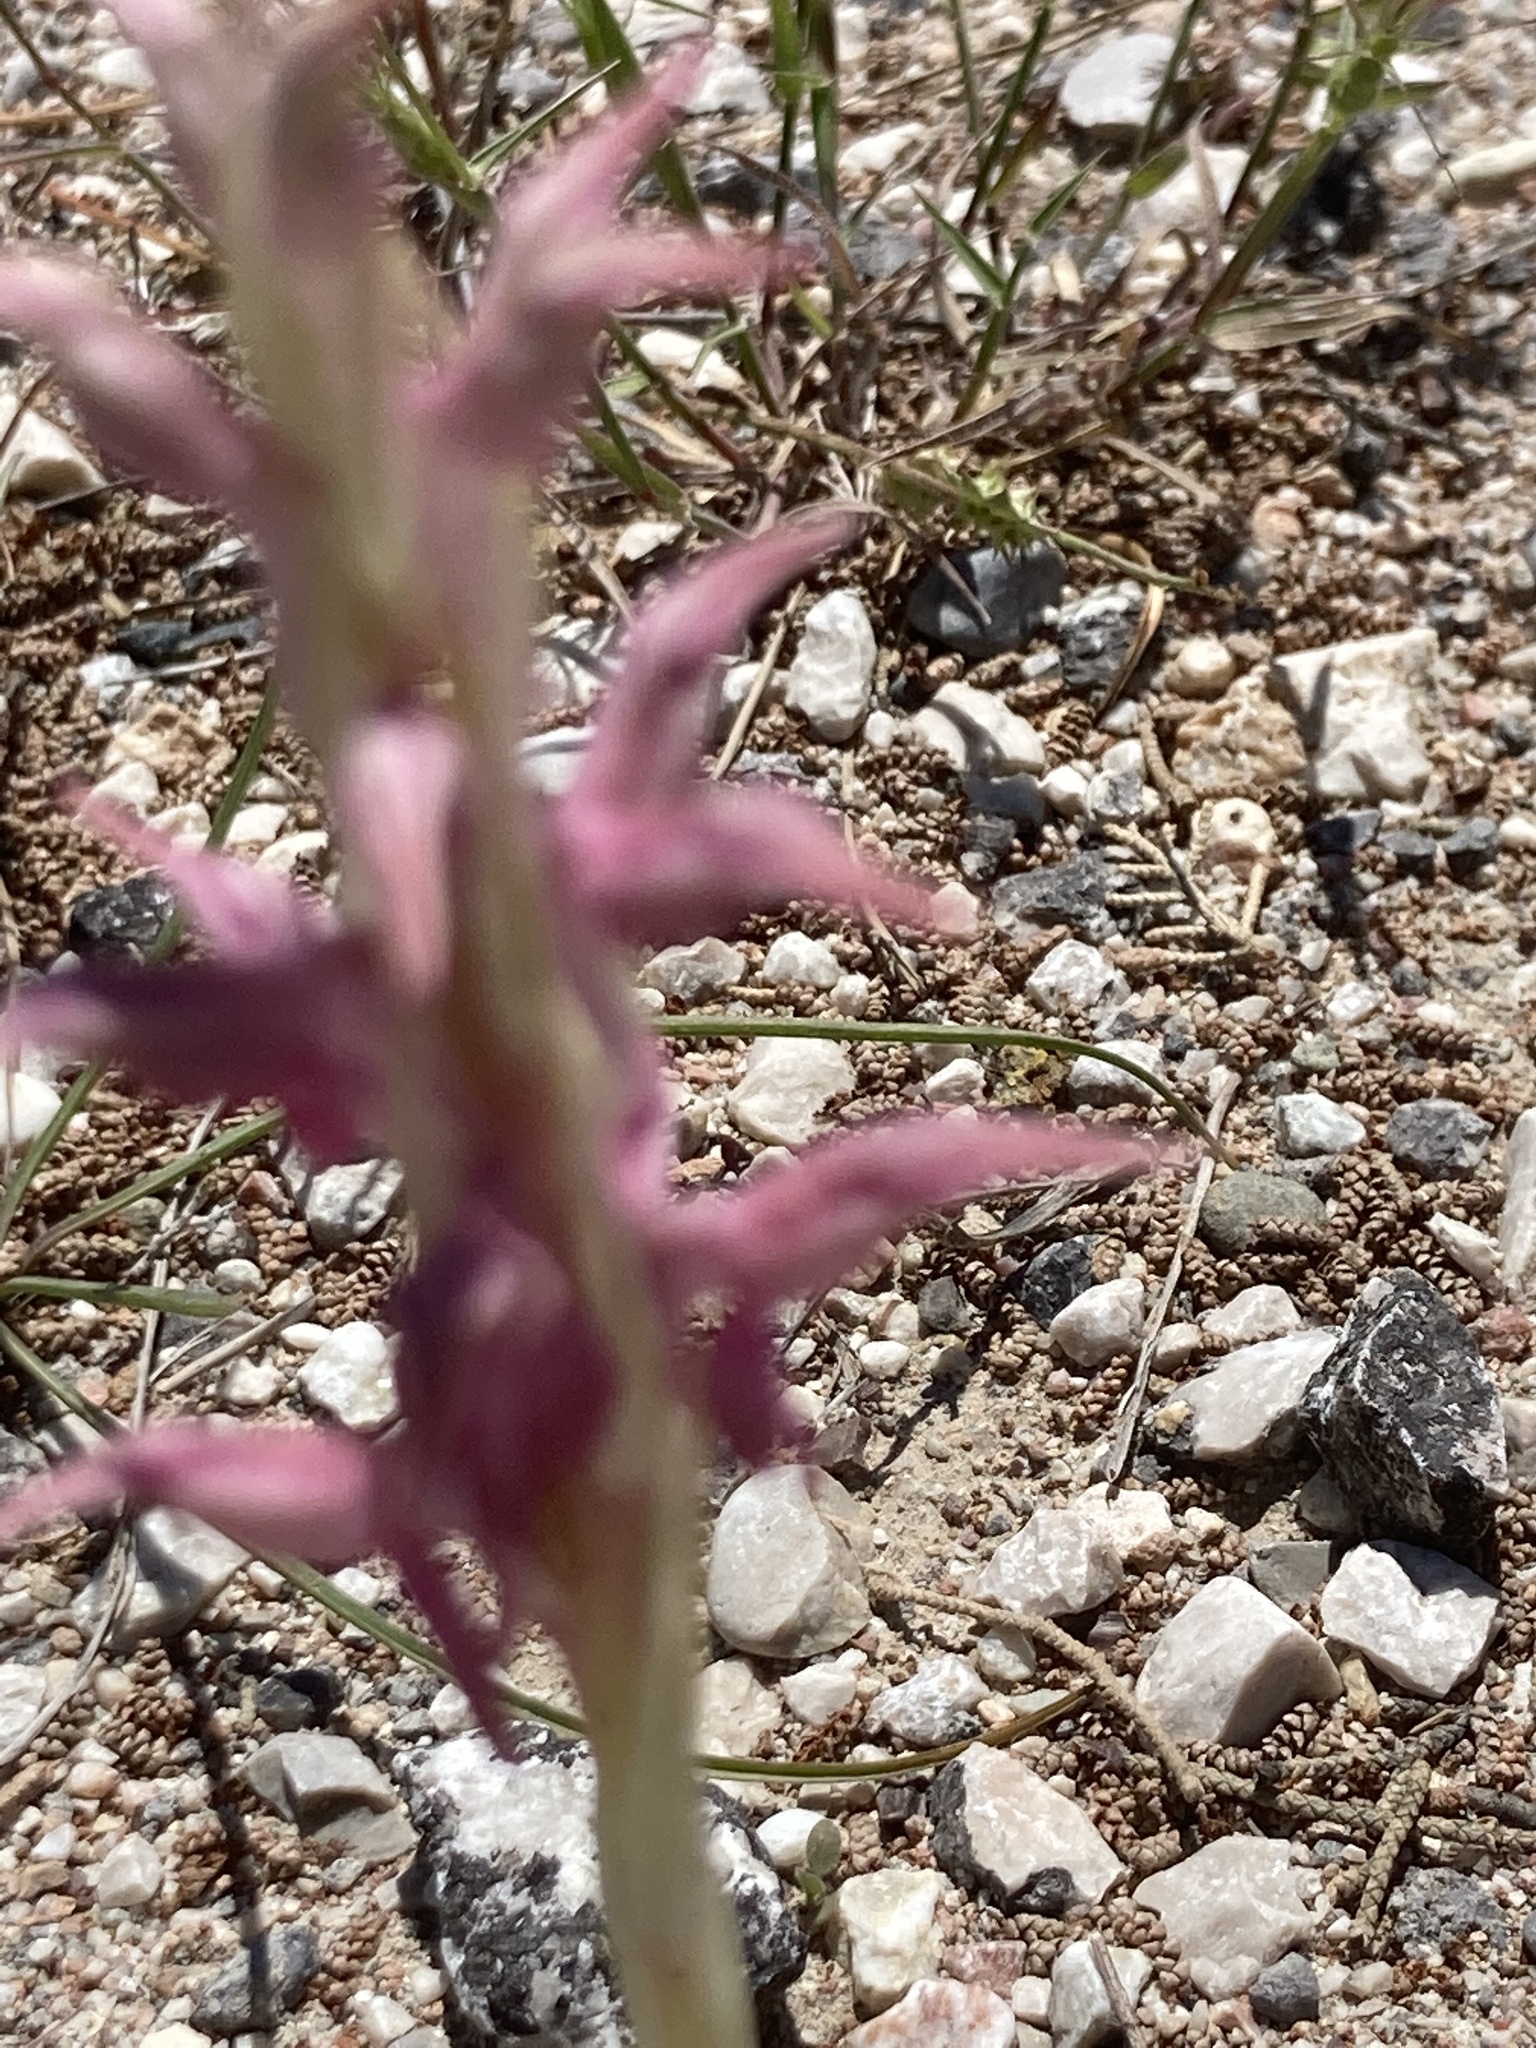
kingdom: Plantae
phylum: Tracheophyta
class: Liliopsida
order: Asparagales
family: Orchidaceae
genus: Anacamptis
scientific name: Anacamptis sancta
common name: Holy orchid
